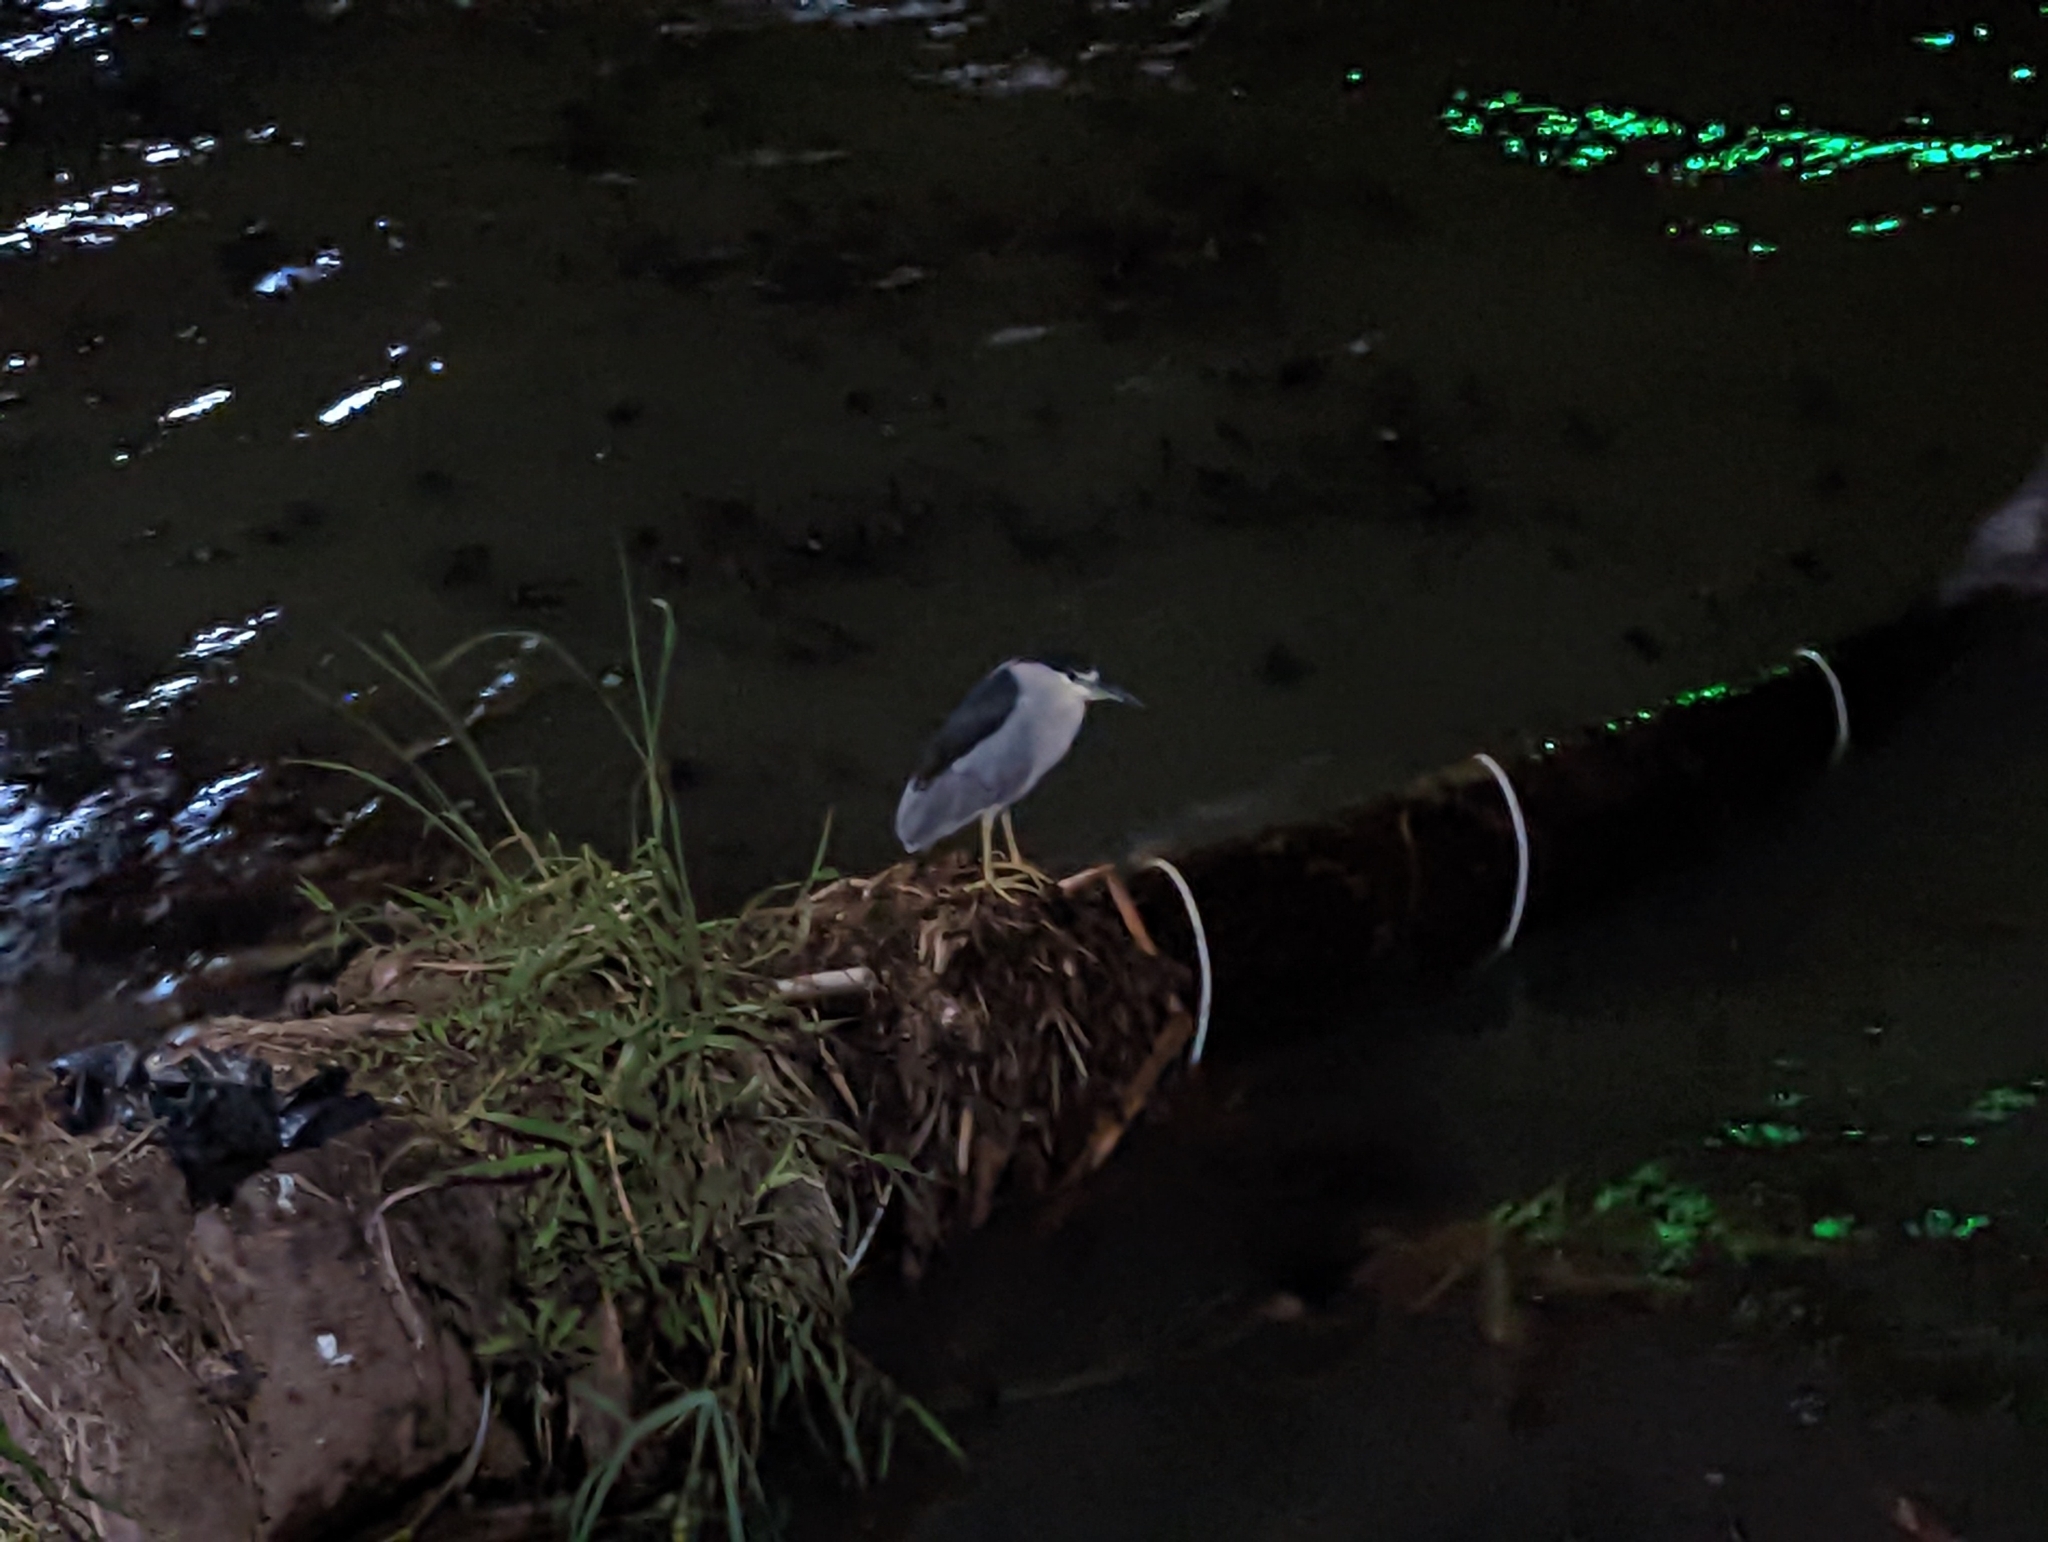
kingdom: Animalia
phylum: Chordata
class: Aves
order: Pelecaniformes
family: Ardeidae
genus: Nycticorax
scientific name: Nycticorax nycticorax
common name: Black-crowned night heron
